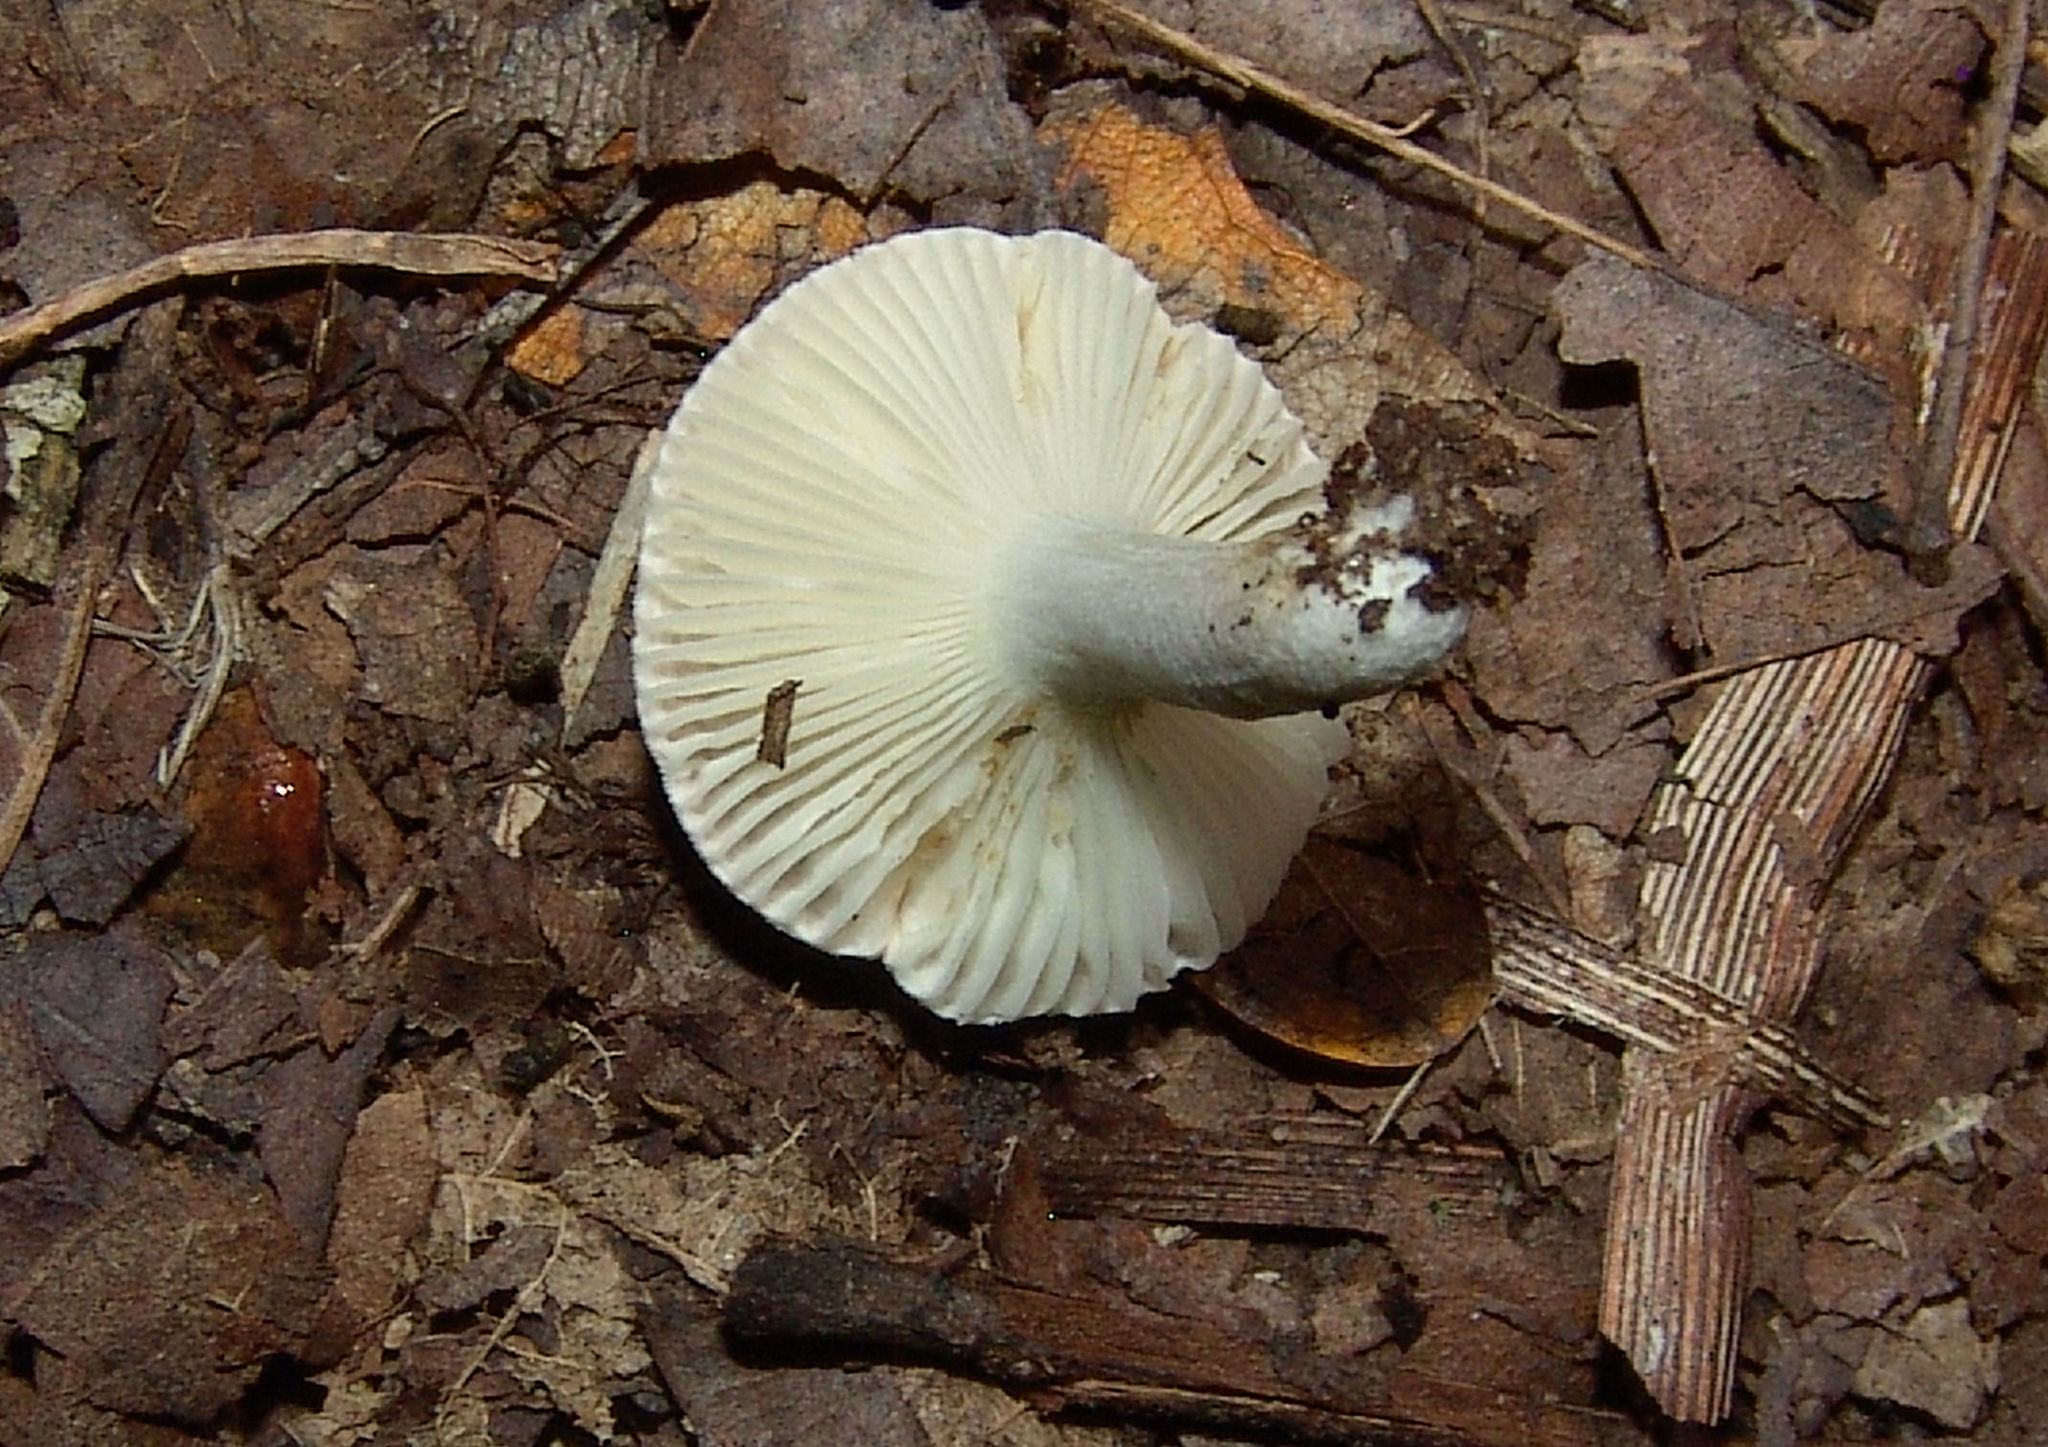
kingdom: Fungi
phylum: Basidiomycota
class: Agaricomycetes
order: Russulales
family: Russulaceae
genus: Russula
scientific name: Russula
